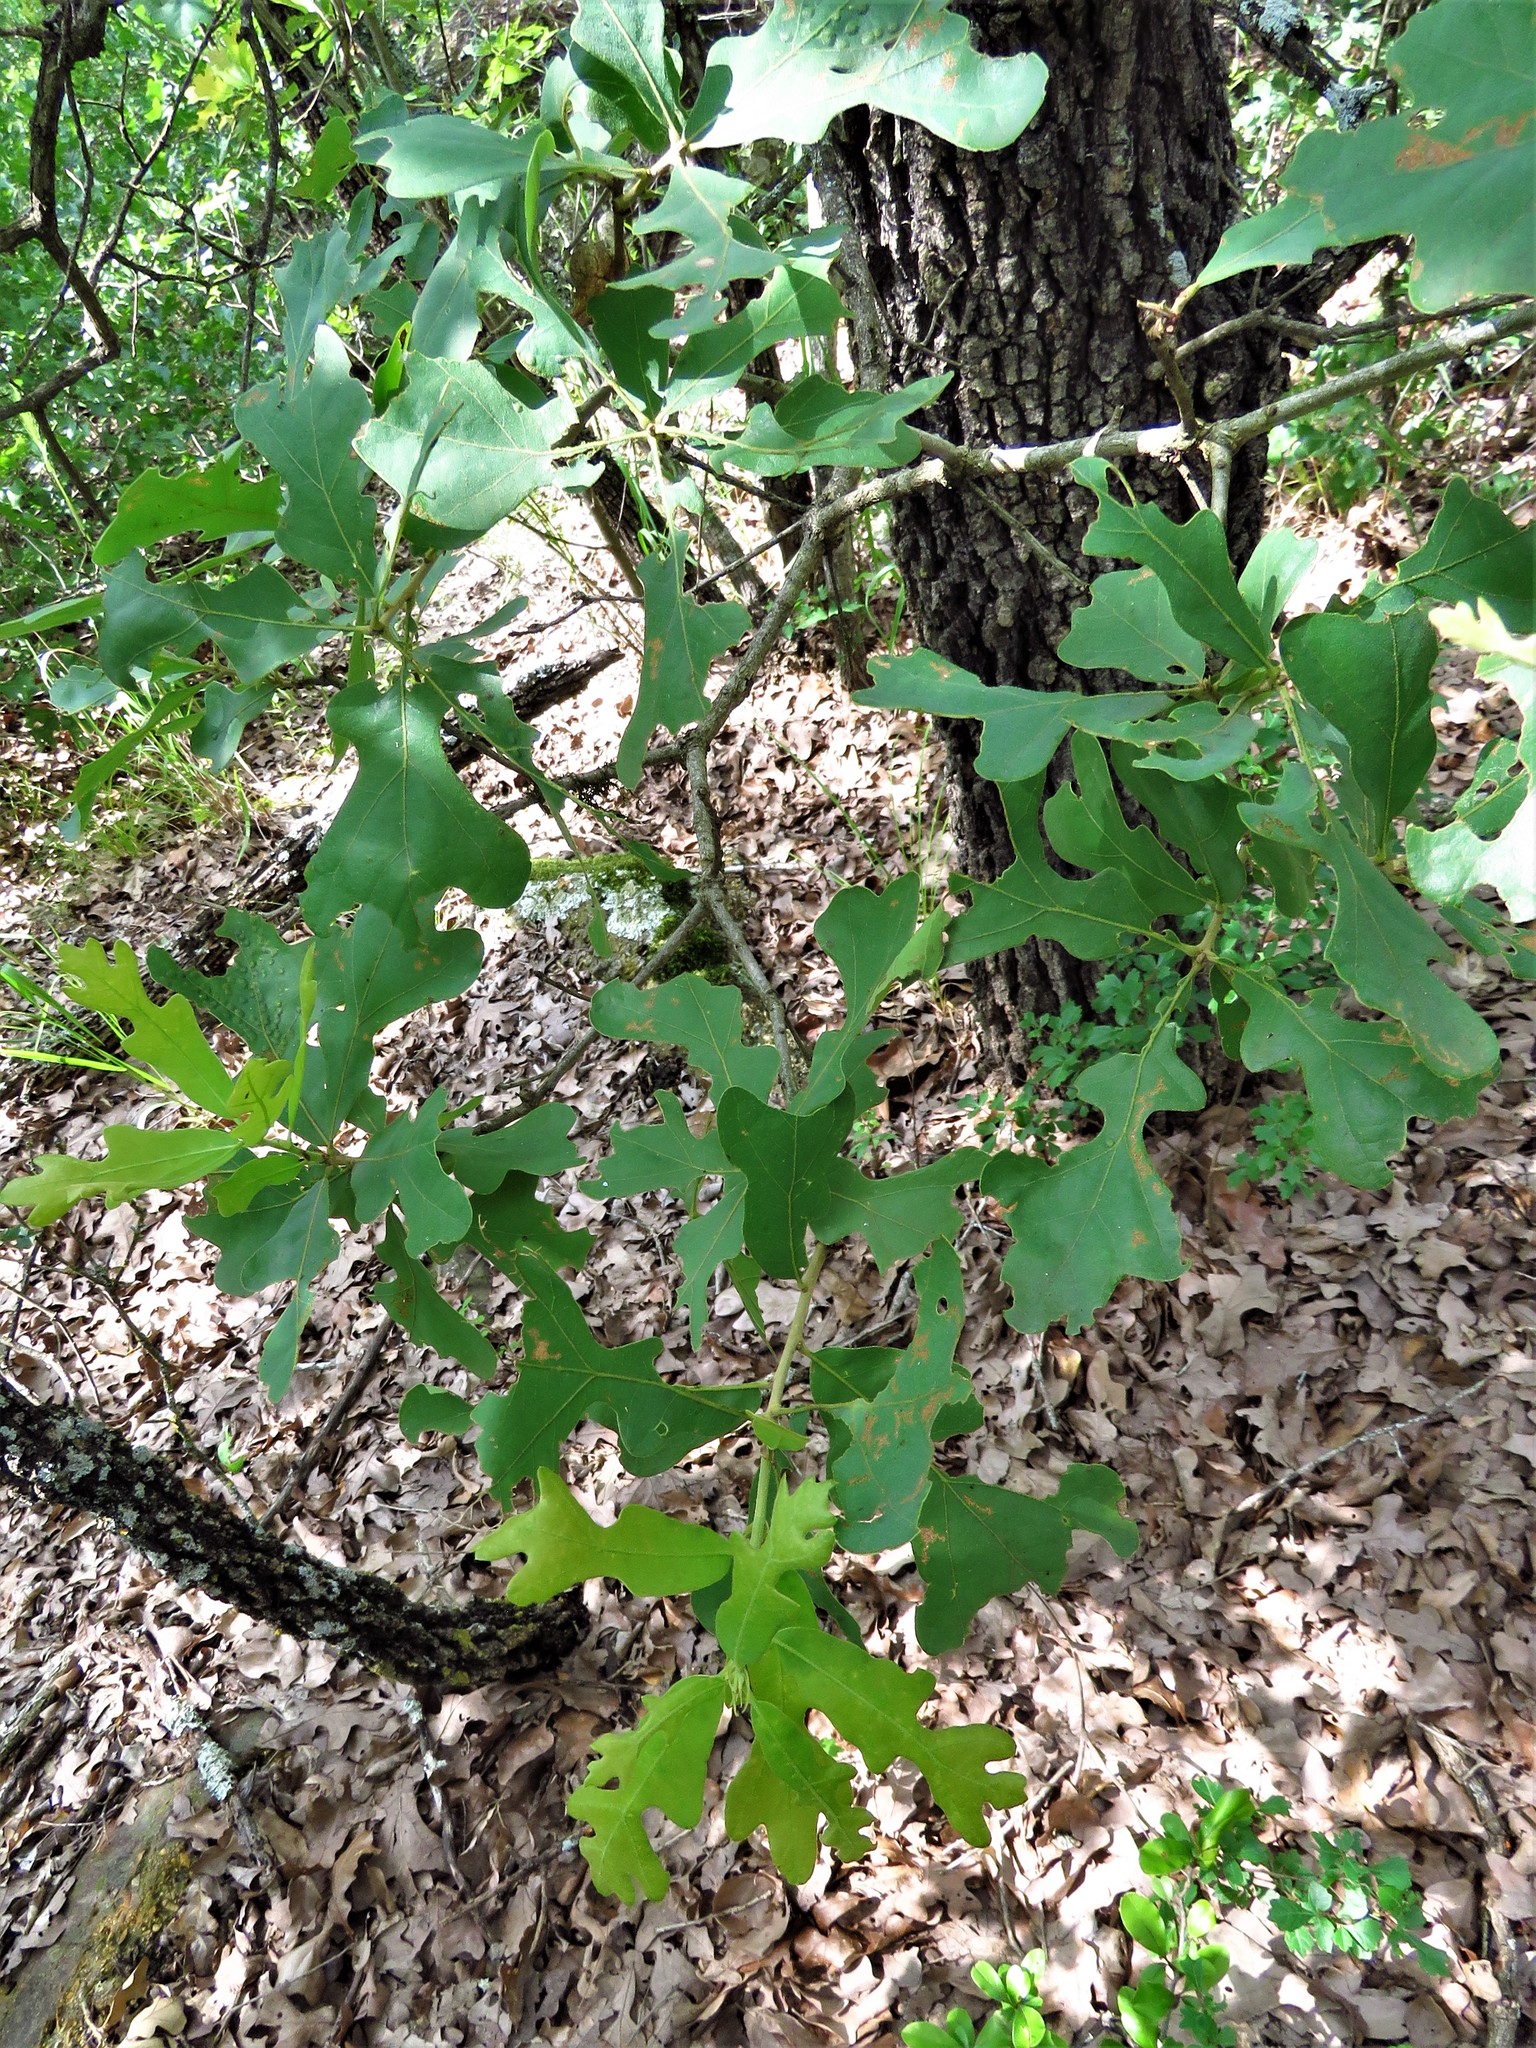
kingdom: Plantae
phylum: Tracheophyta
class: Magnoliopsida
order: Fagales
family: Fagaceae
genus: Quercus
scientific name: Quercus marilandica
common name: Blackjack oak
